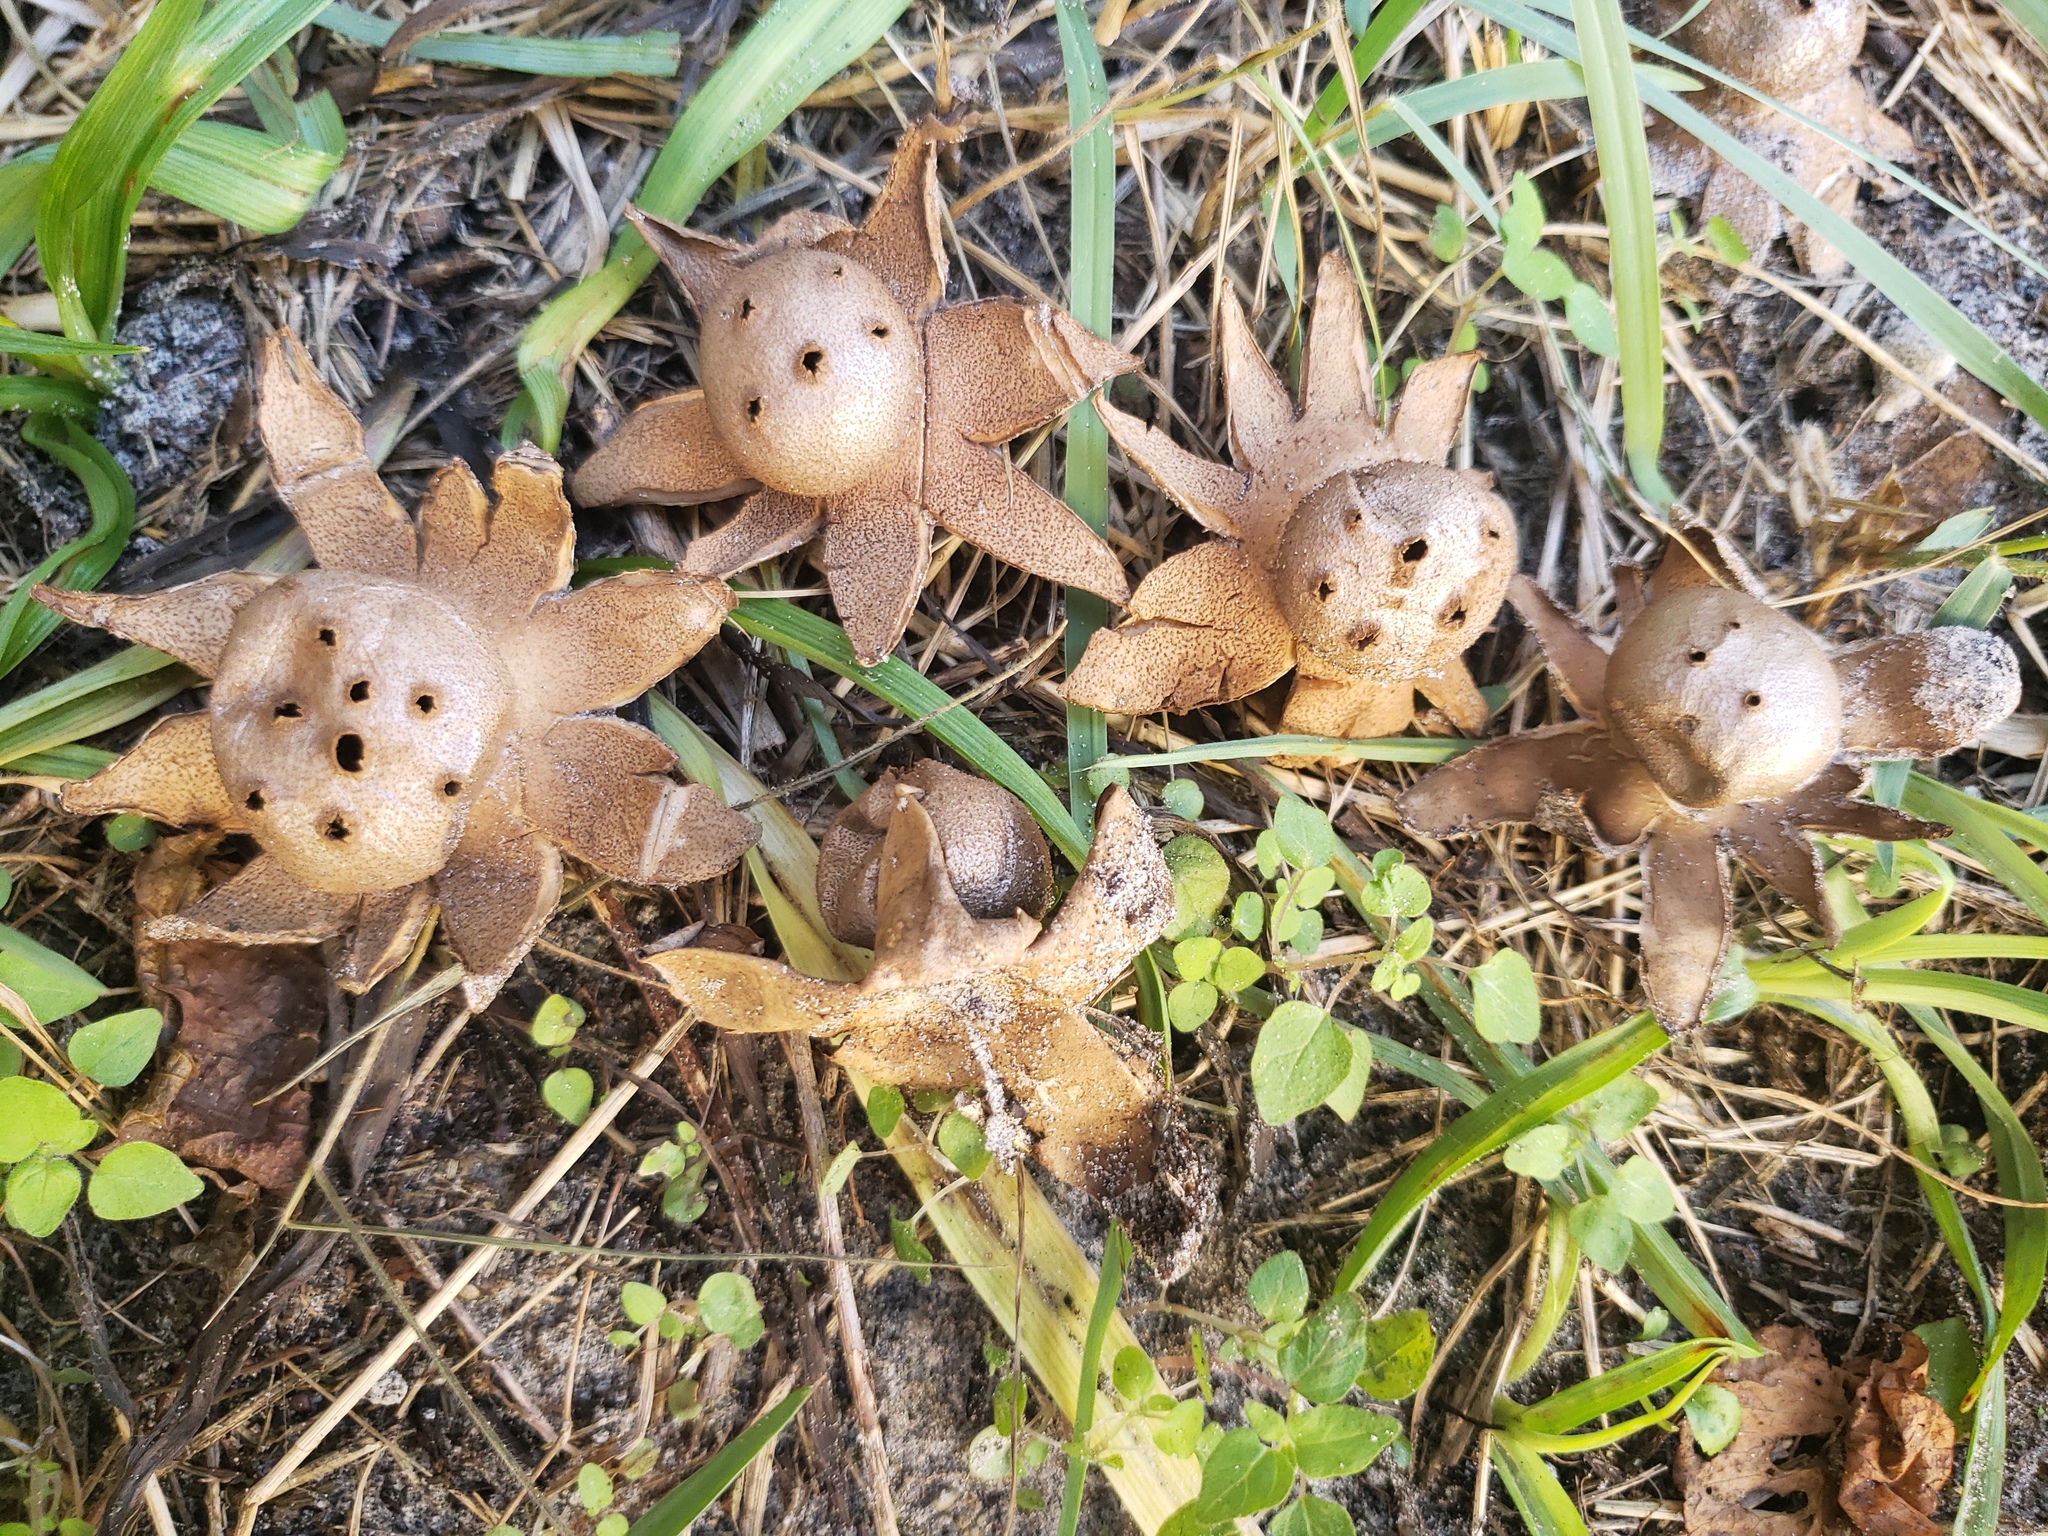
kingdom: Fungi
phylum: Basidiomycota
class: Agaricomycetes
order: Geastrales
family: Geastraceae
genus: Myriostoma
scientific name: Myriostoma coliforme
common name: Pepper pot
